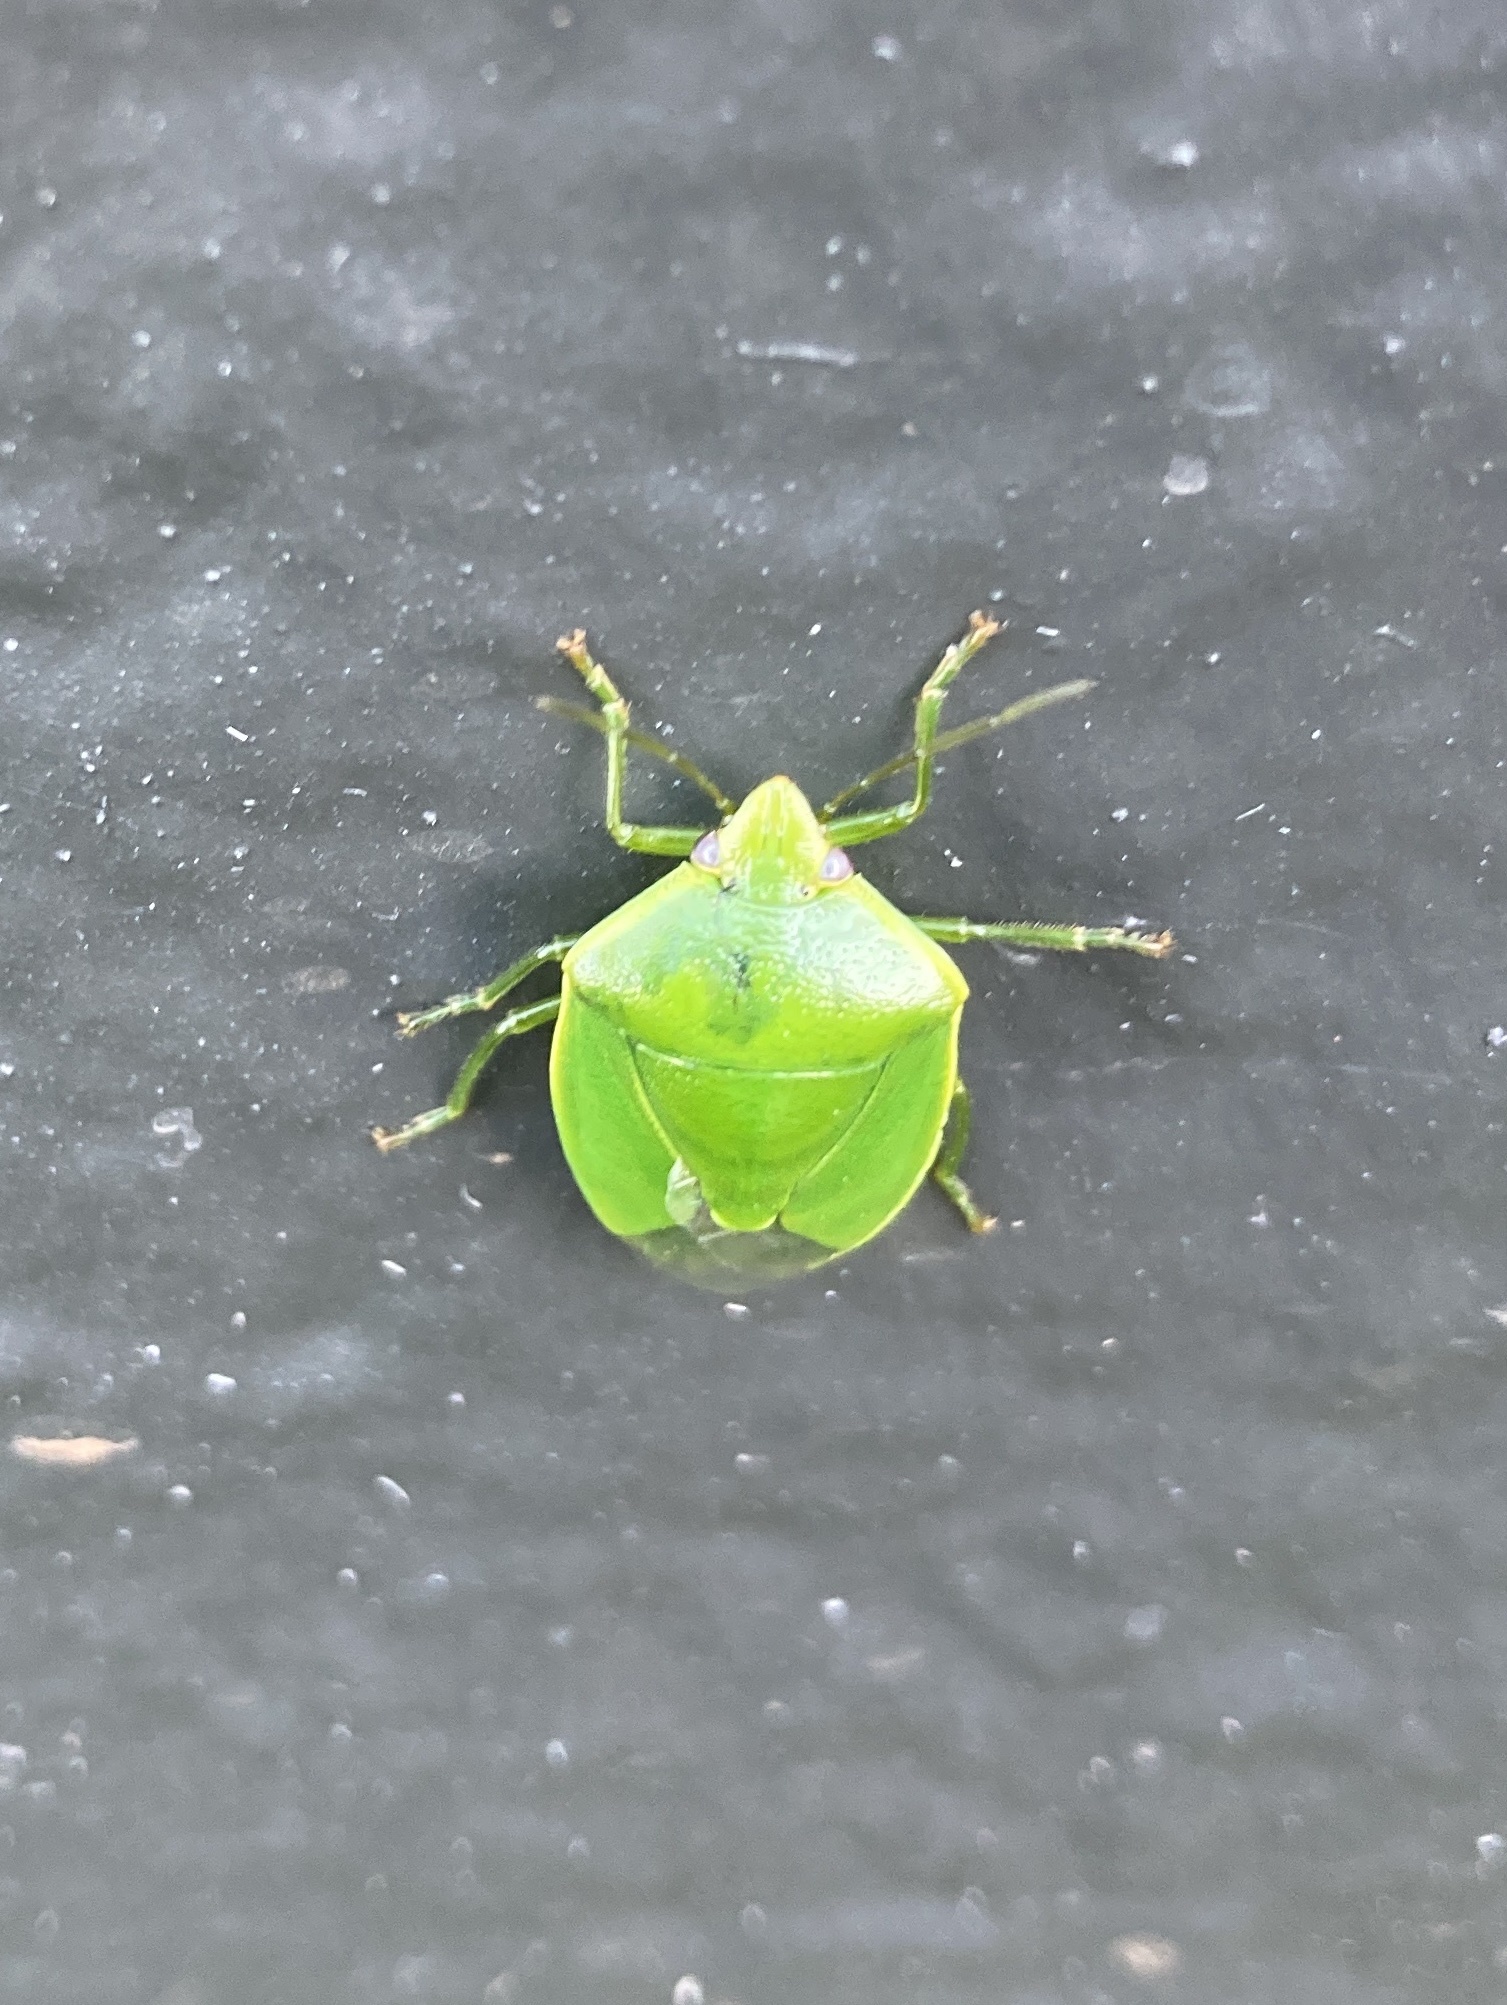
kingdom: Animalia
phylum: Arthropoda
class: Insecta
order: Hemiptera
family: Pentatomidae
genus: Glaucias
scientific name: Glaucias amyota
